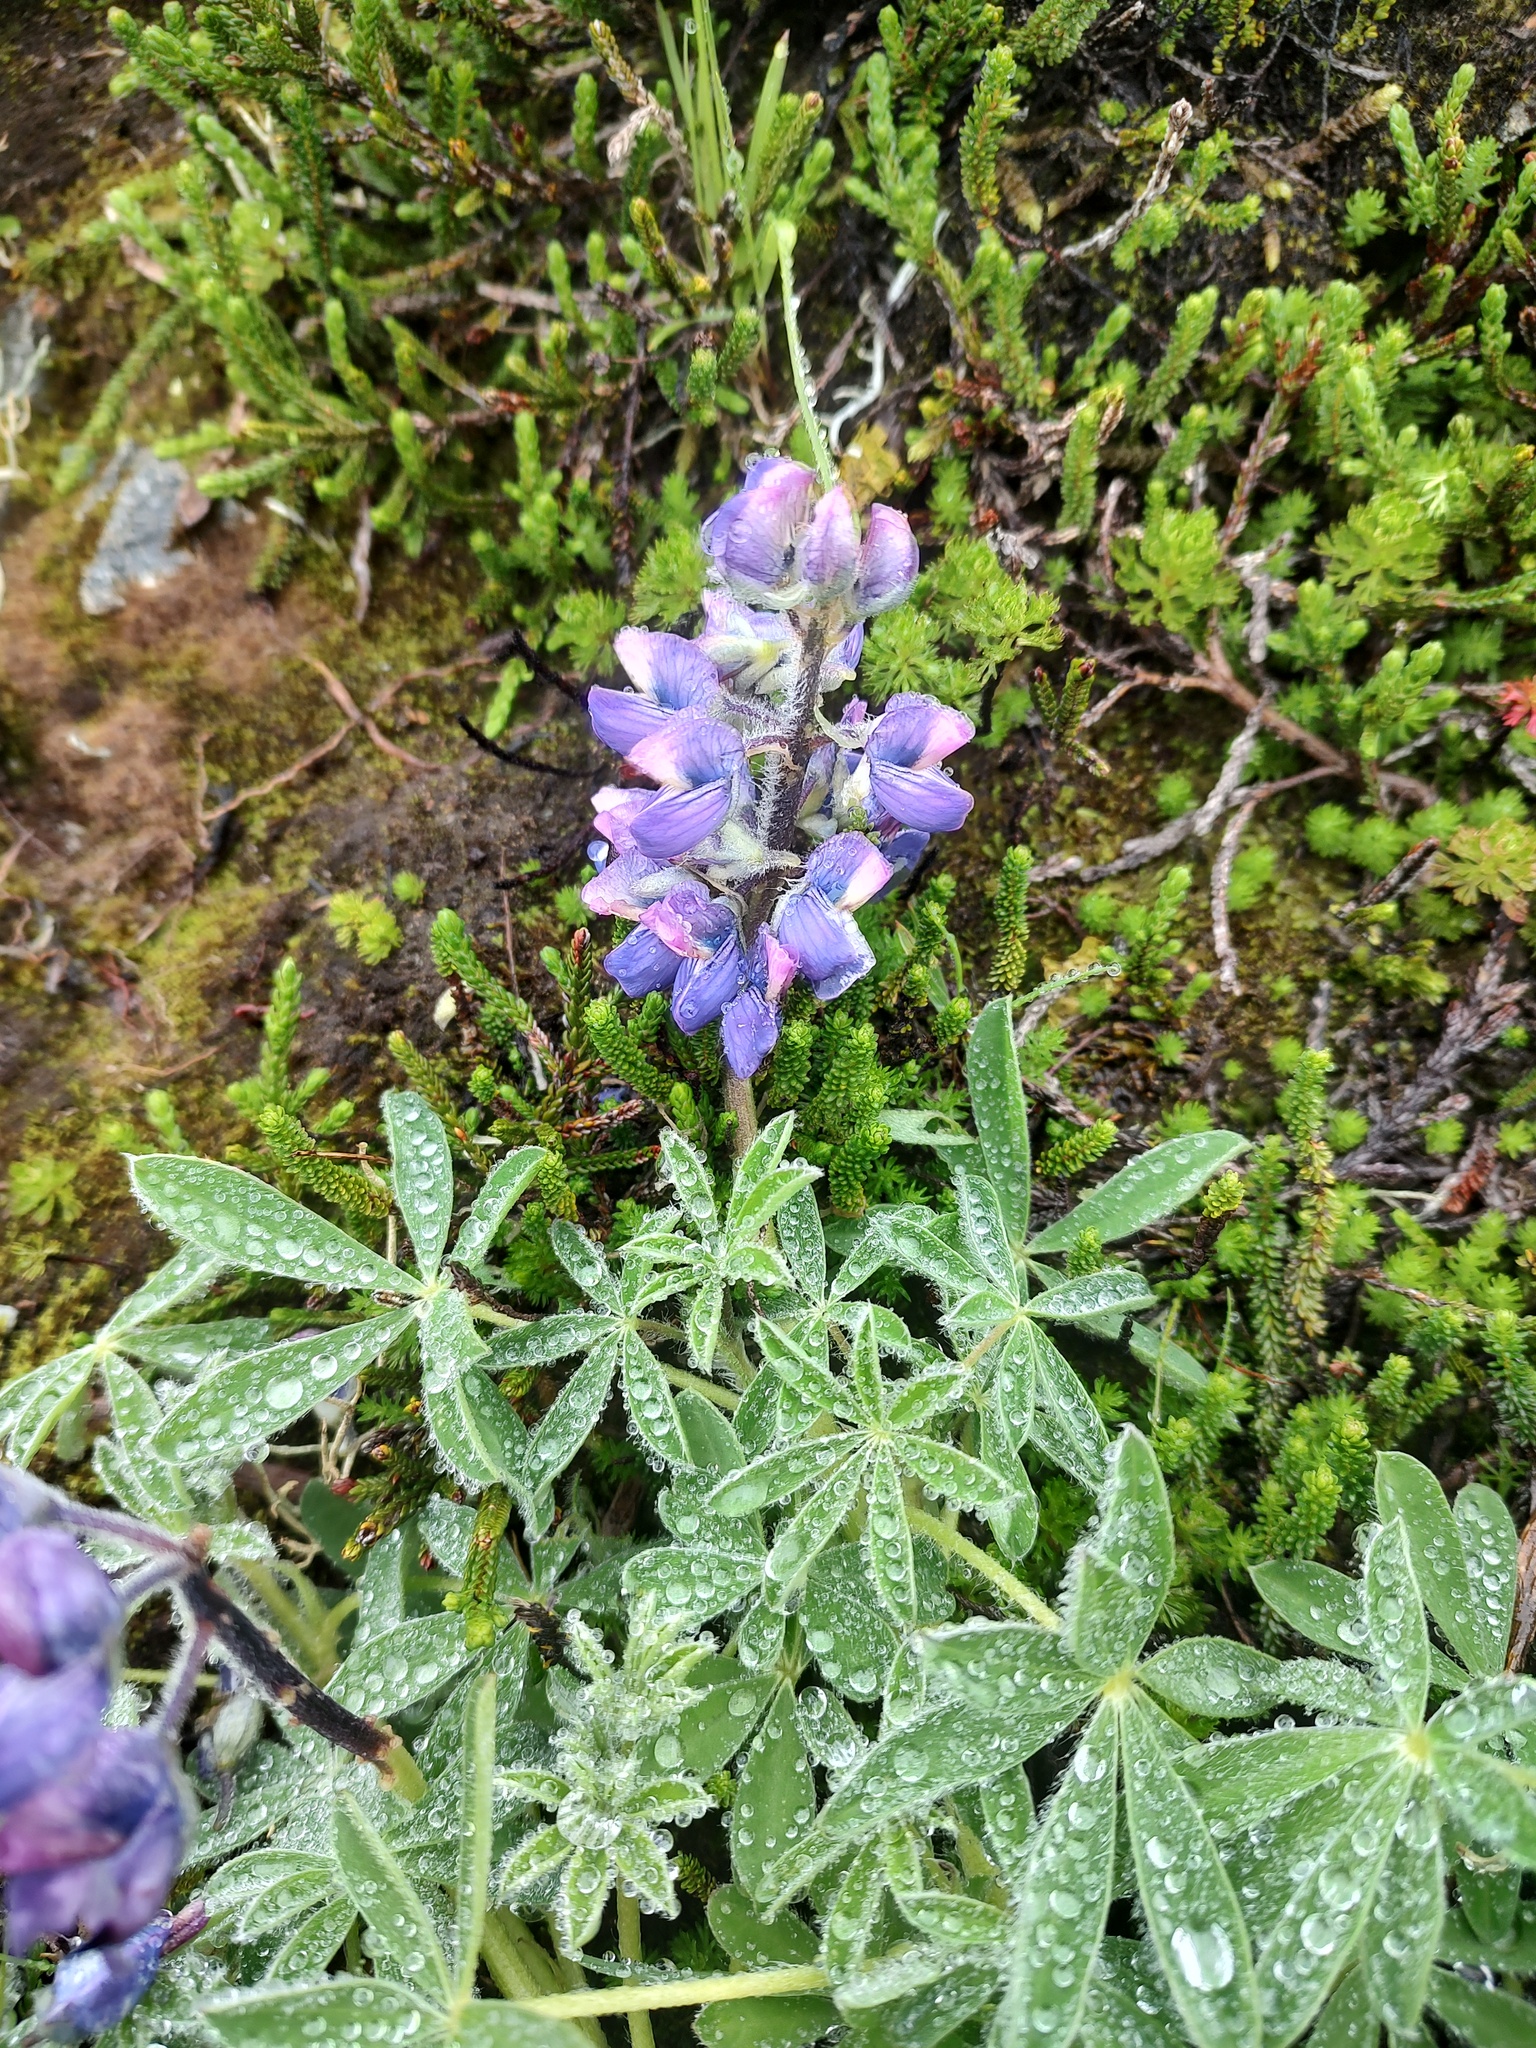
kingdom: Plantae
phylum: Tracheophyta
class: Magnoliopsida
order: Fabales
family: Fabaceae
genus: Lupinus
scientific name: Lupinus nootkatensis
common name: Nootka lupine
